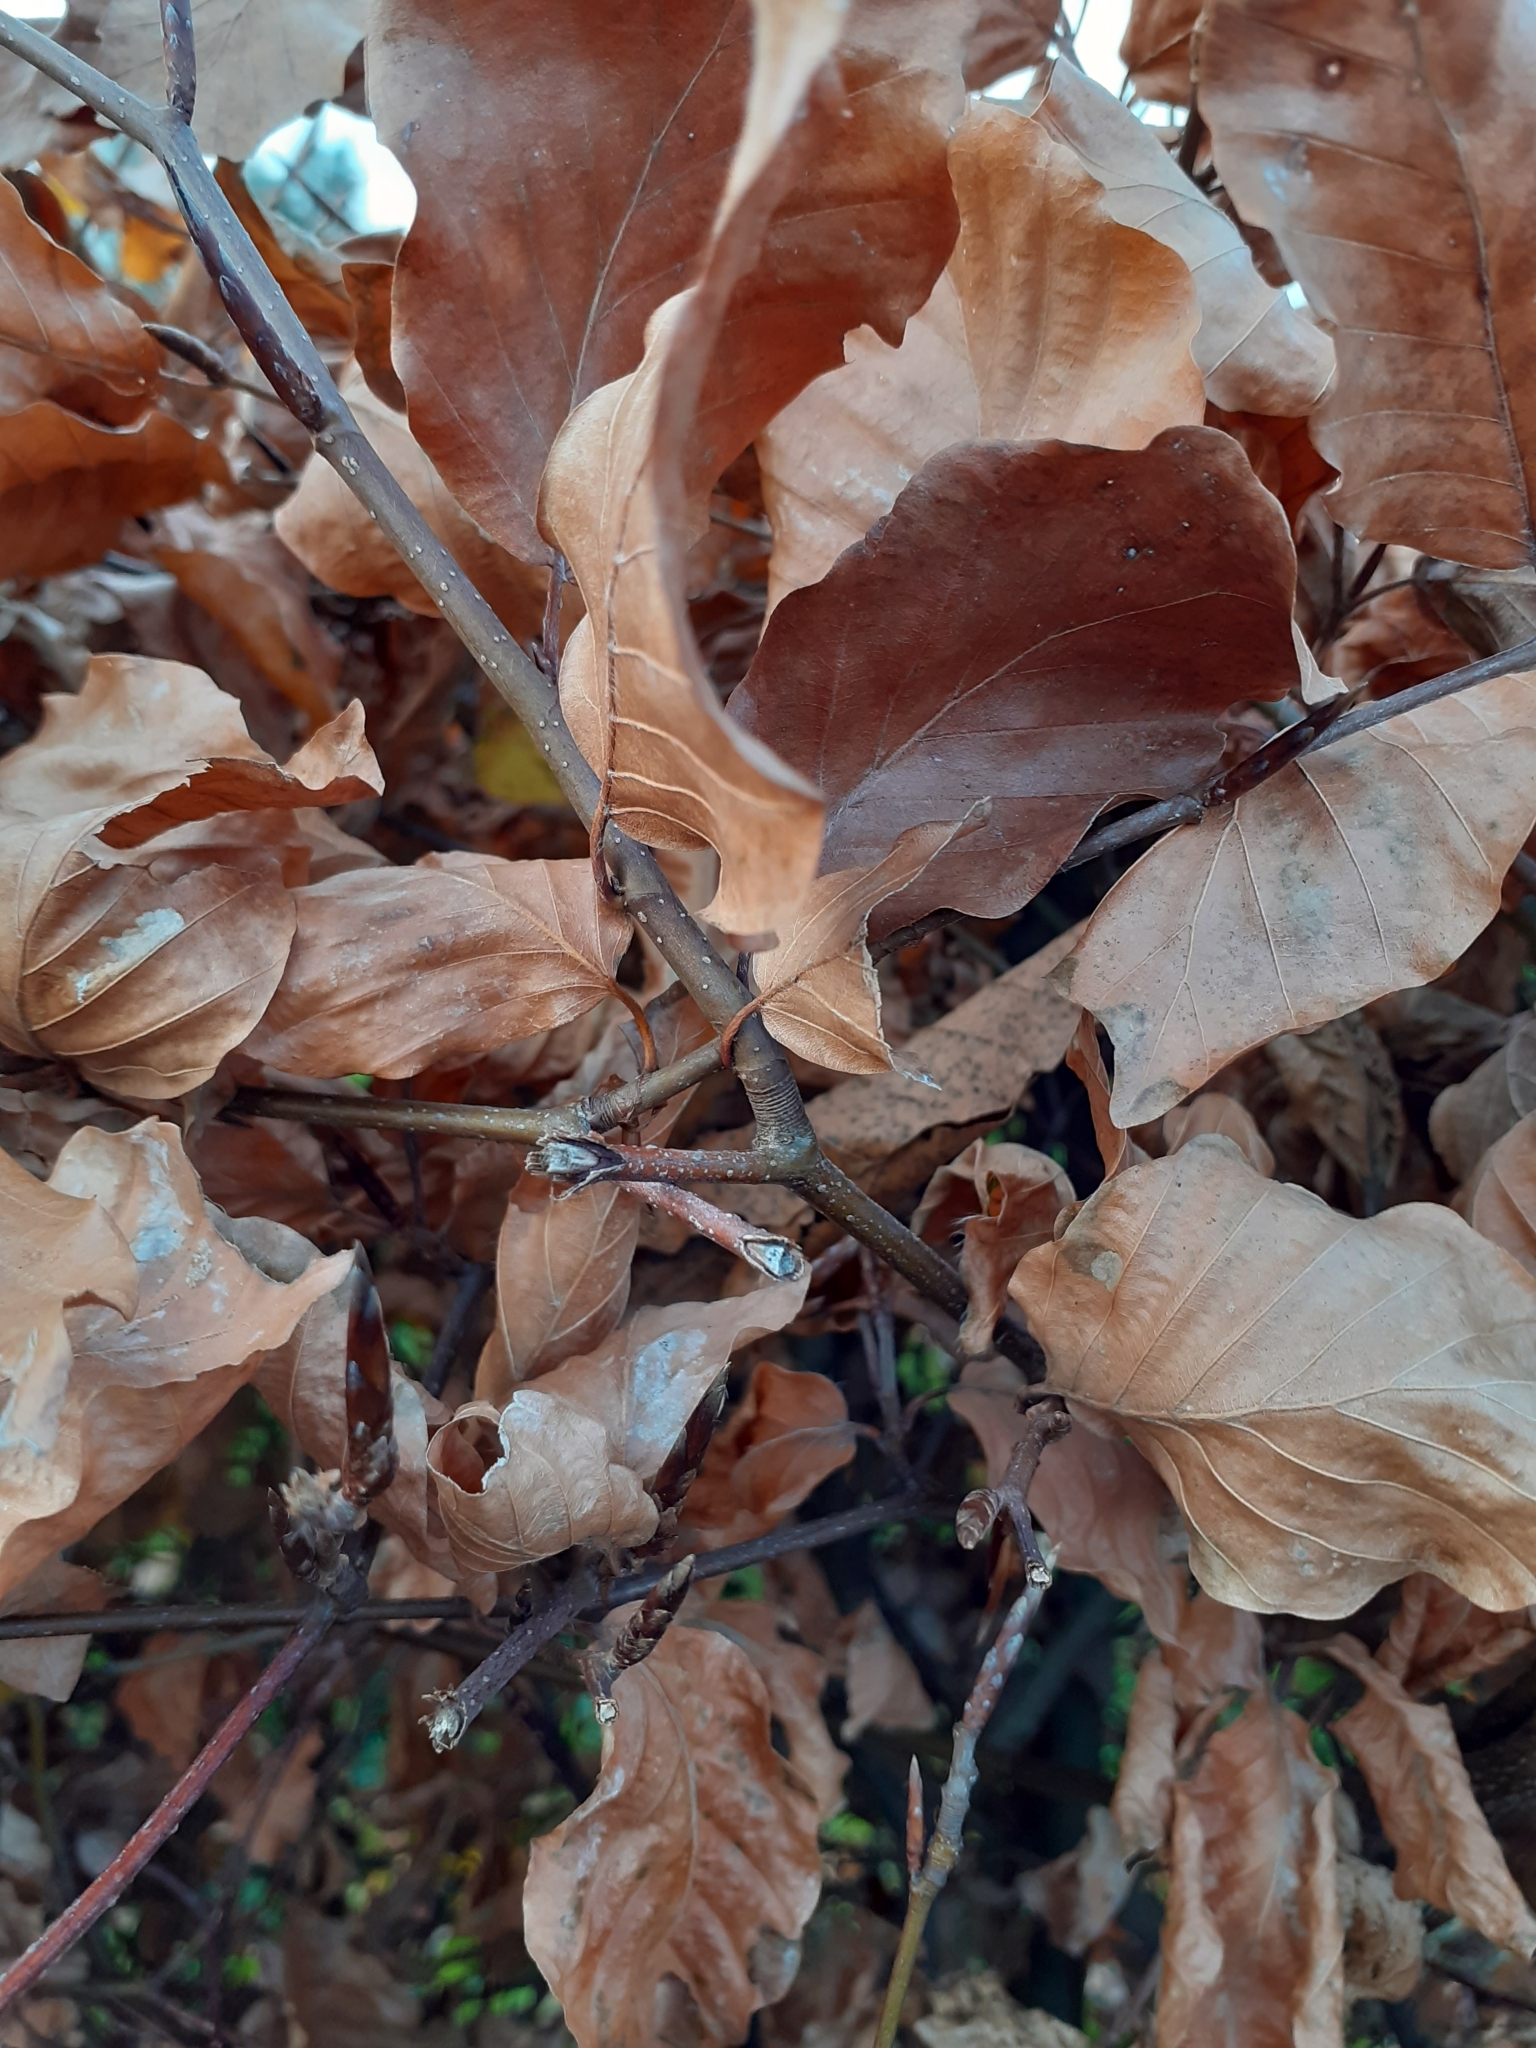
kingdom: Plantae
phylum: Tracheophyta
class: Magnoliopsida
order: Fagales
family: Fagaceae
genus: Fagus
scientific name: Fagus sylvatica
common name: Beech
